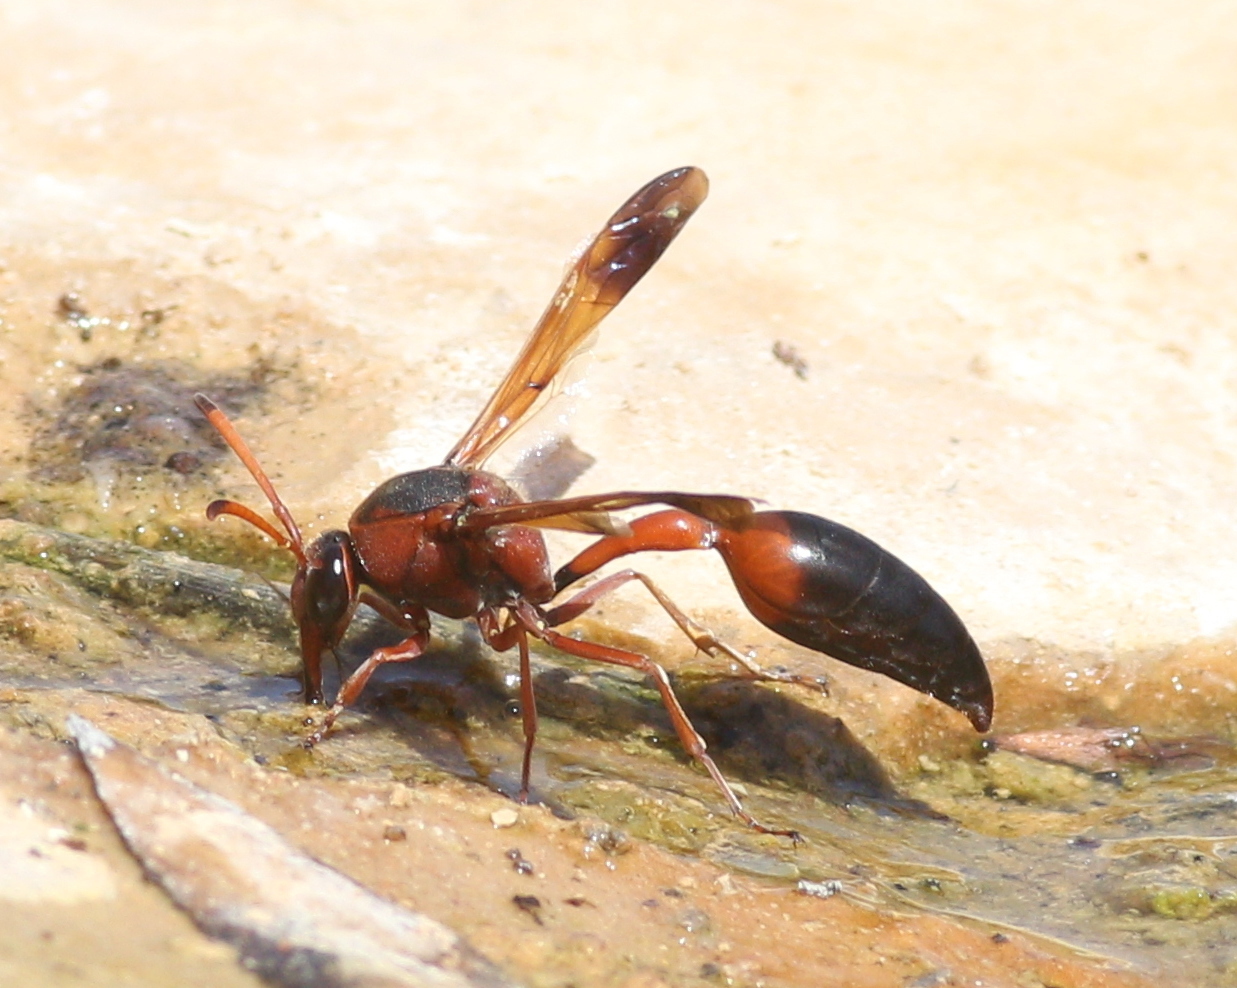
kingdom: Animalia
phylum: Arthropoda
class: Insecta
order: Hymenoptera
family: Eumenidae
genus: Delta
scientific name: Delta dimidiatipenne
